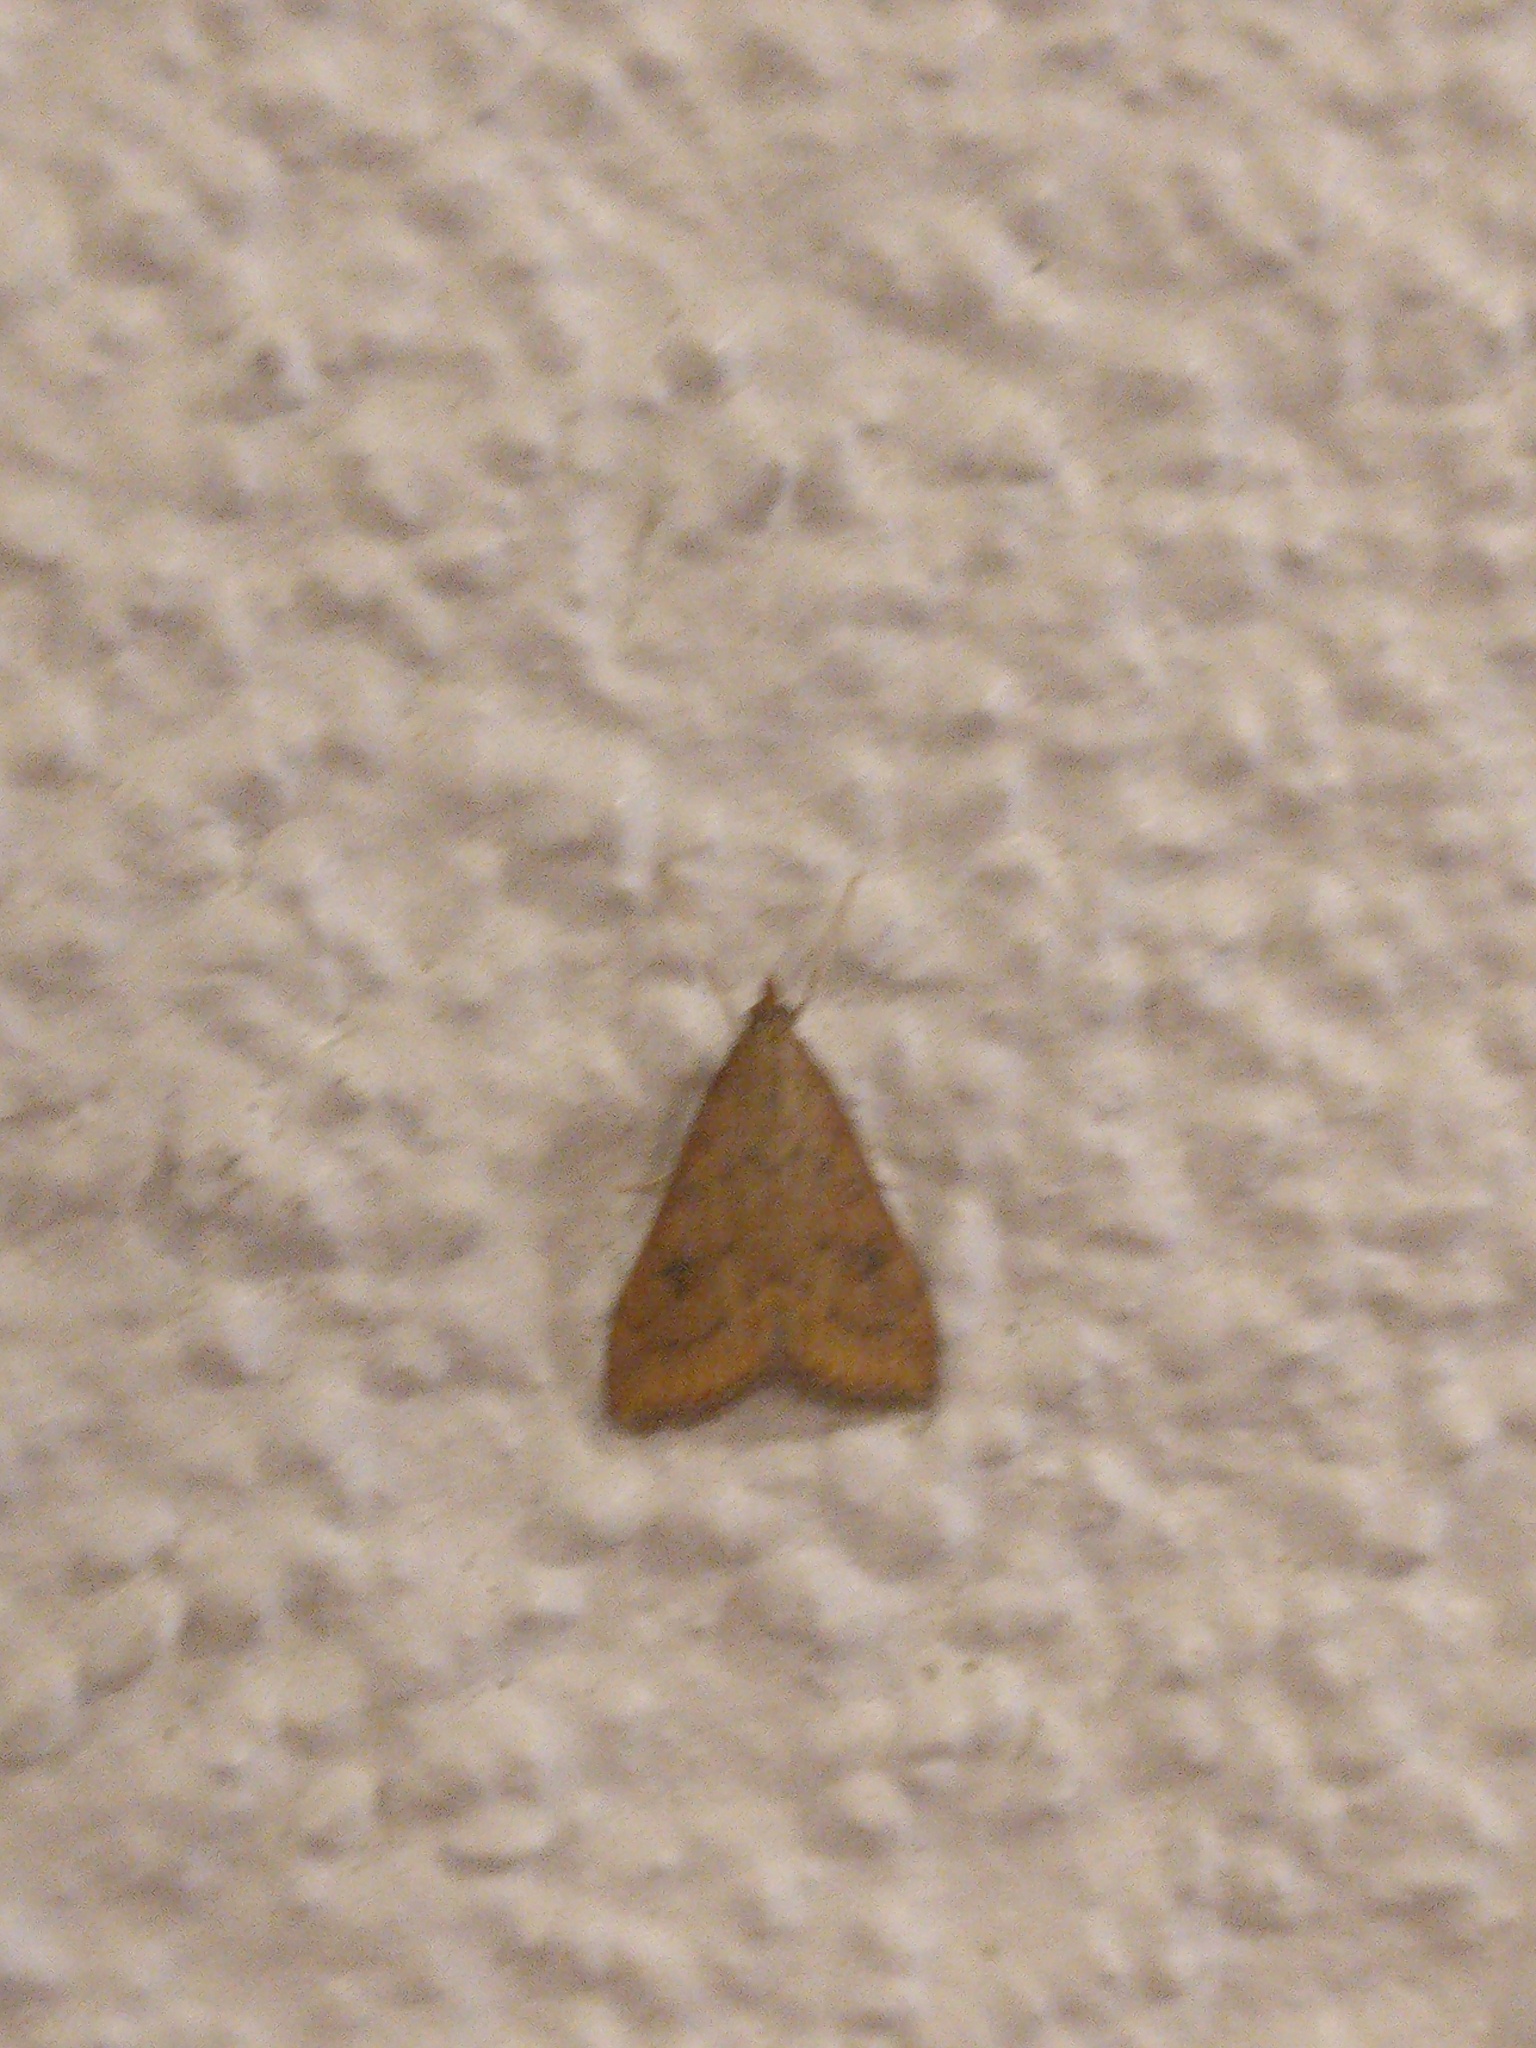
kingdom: Animalia
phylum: Arthropoda
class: Insecta
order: Lepidoptera
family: Crambidae
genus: Udea
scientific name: Udea ferrugalis
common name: Rusty dot
